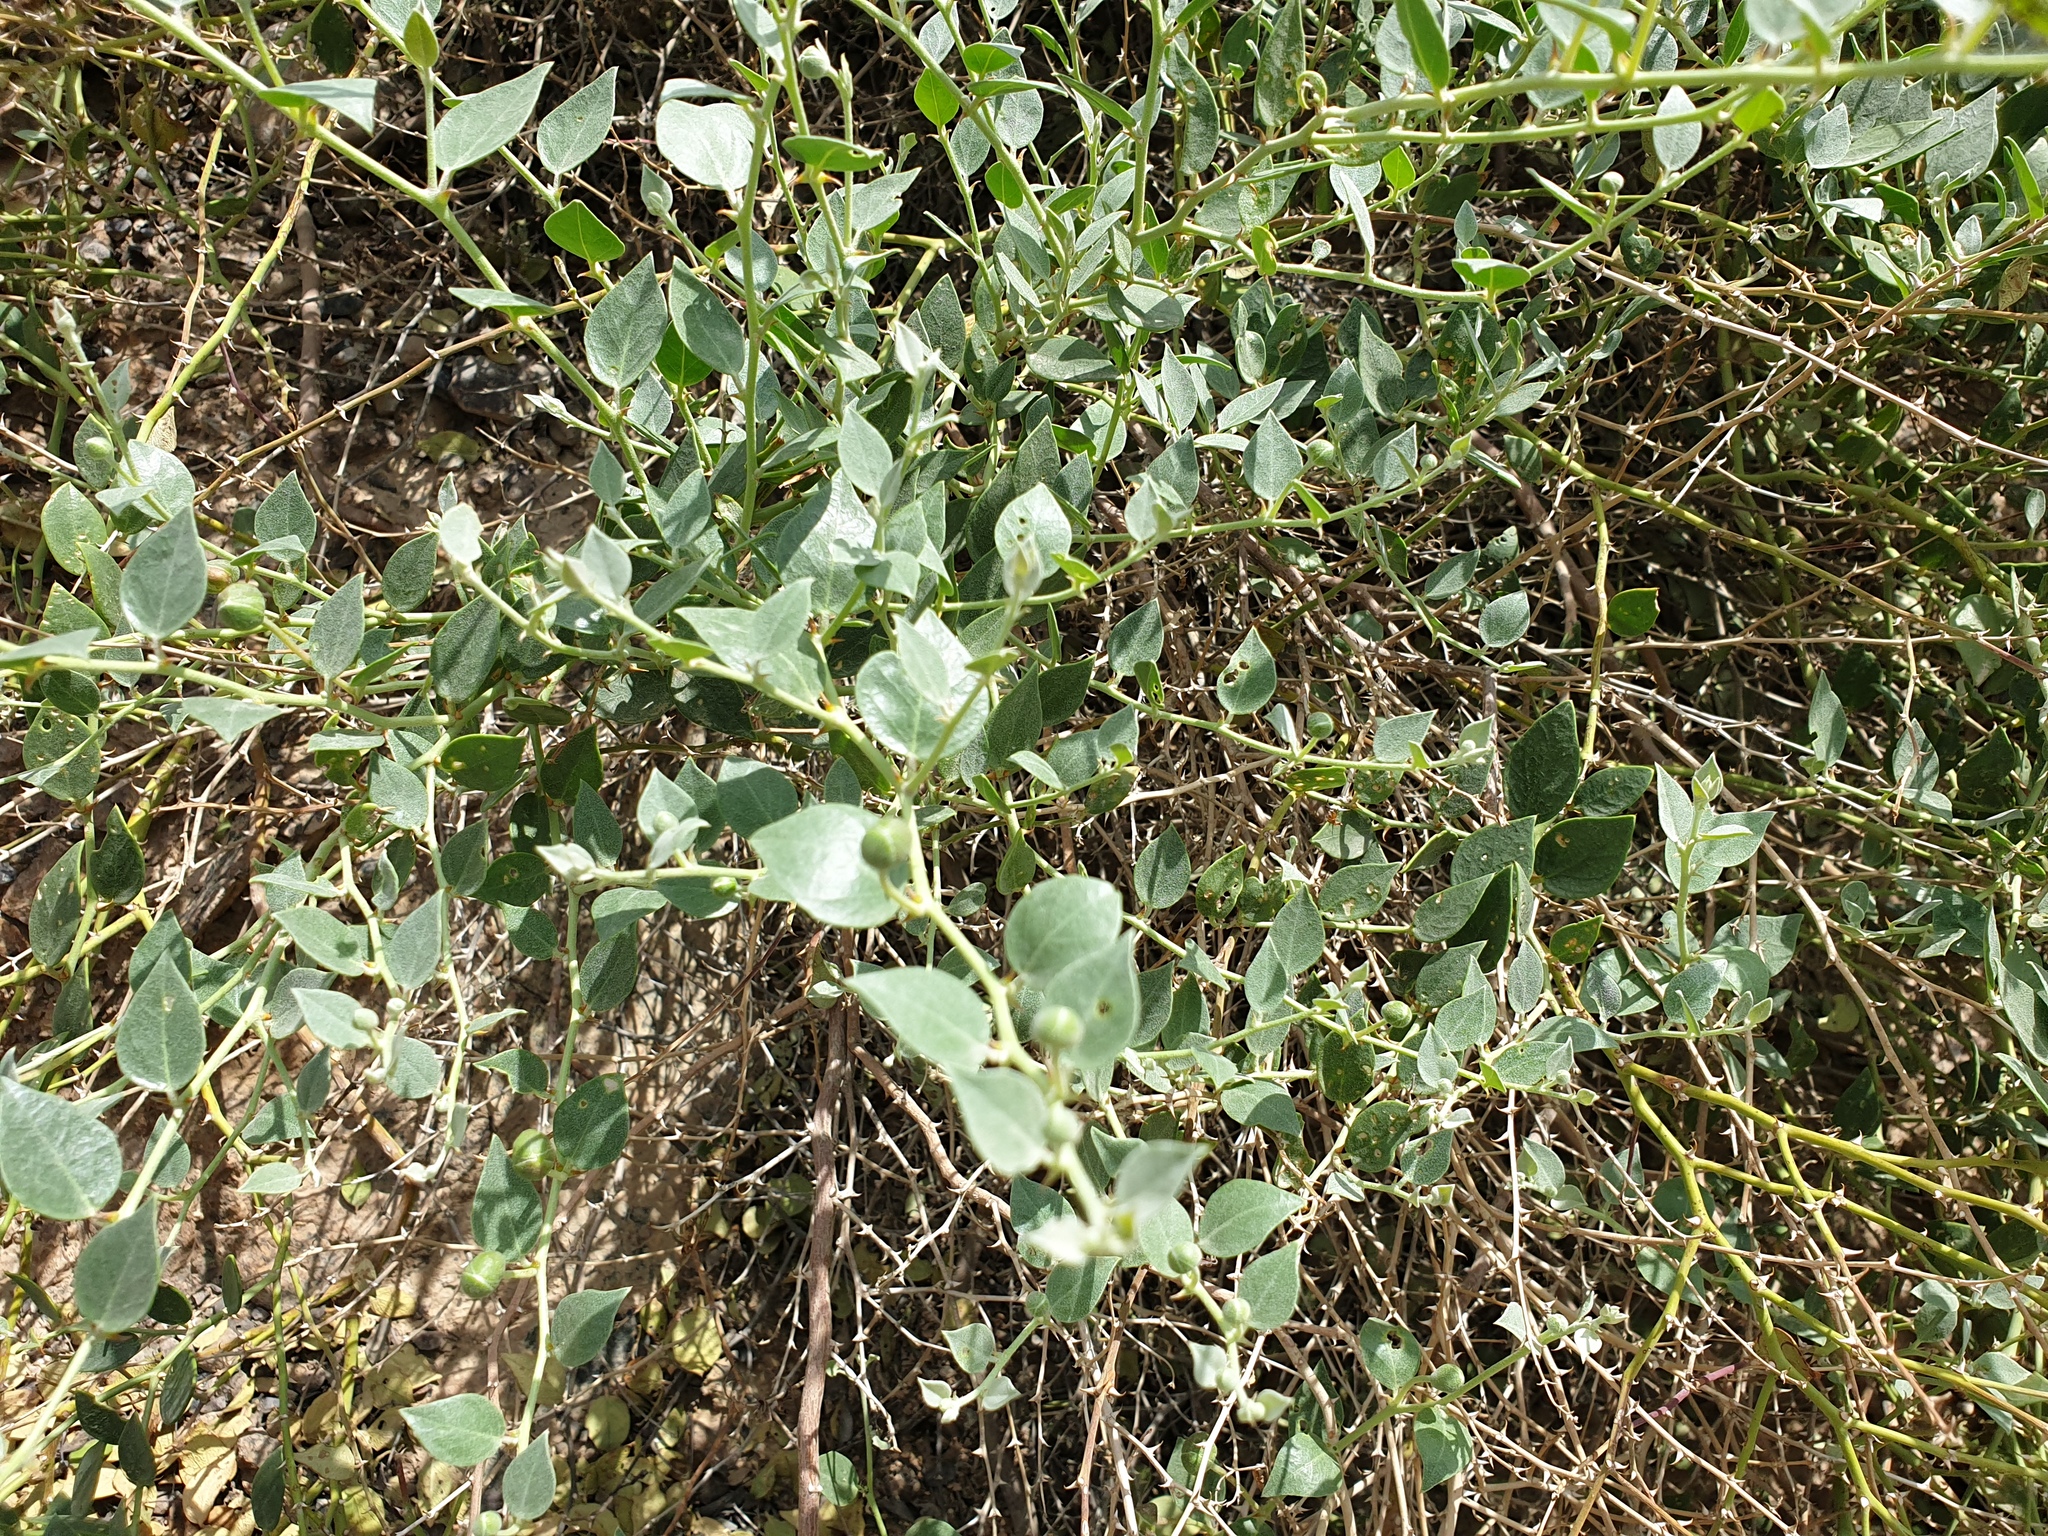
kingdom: Plantae
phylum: Tracheophyta
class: Magnoliopsida
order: Brassicales
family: Capparaceae
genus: Capparis
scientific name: Capparis spinosa
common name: Caper
